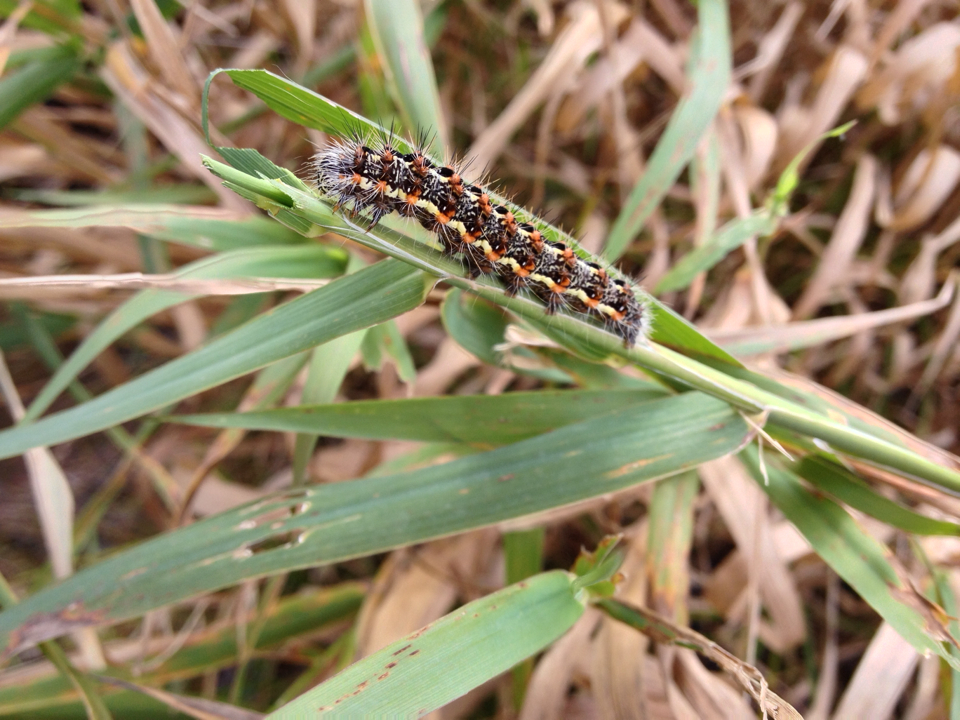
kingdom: Animalia
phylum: Arthropoda
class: Insecta
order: Lepidoptera
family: Noctuidae
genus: Acronicta
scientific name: Acronicta insularis
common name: Henry's marsh moth
